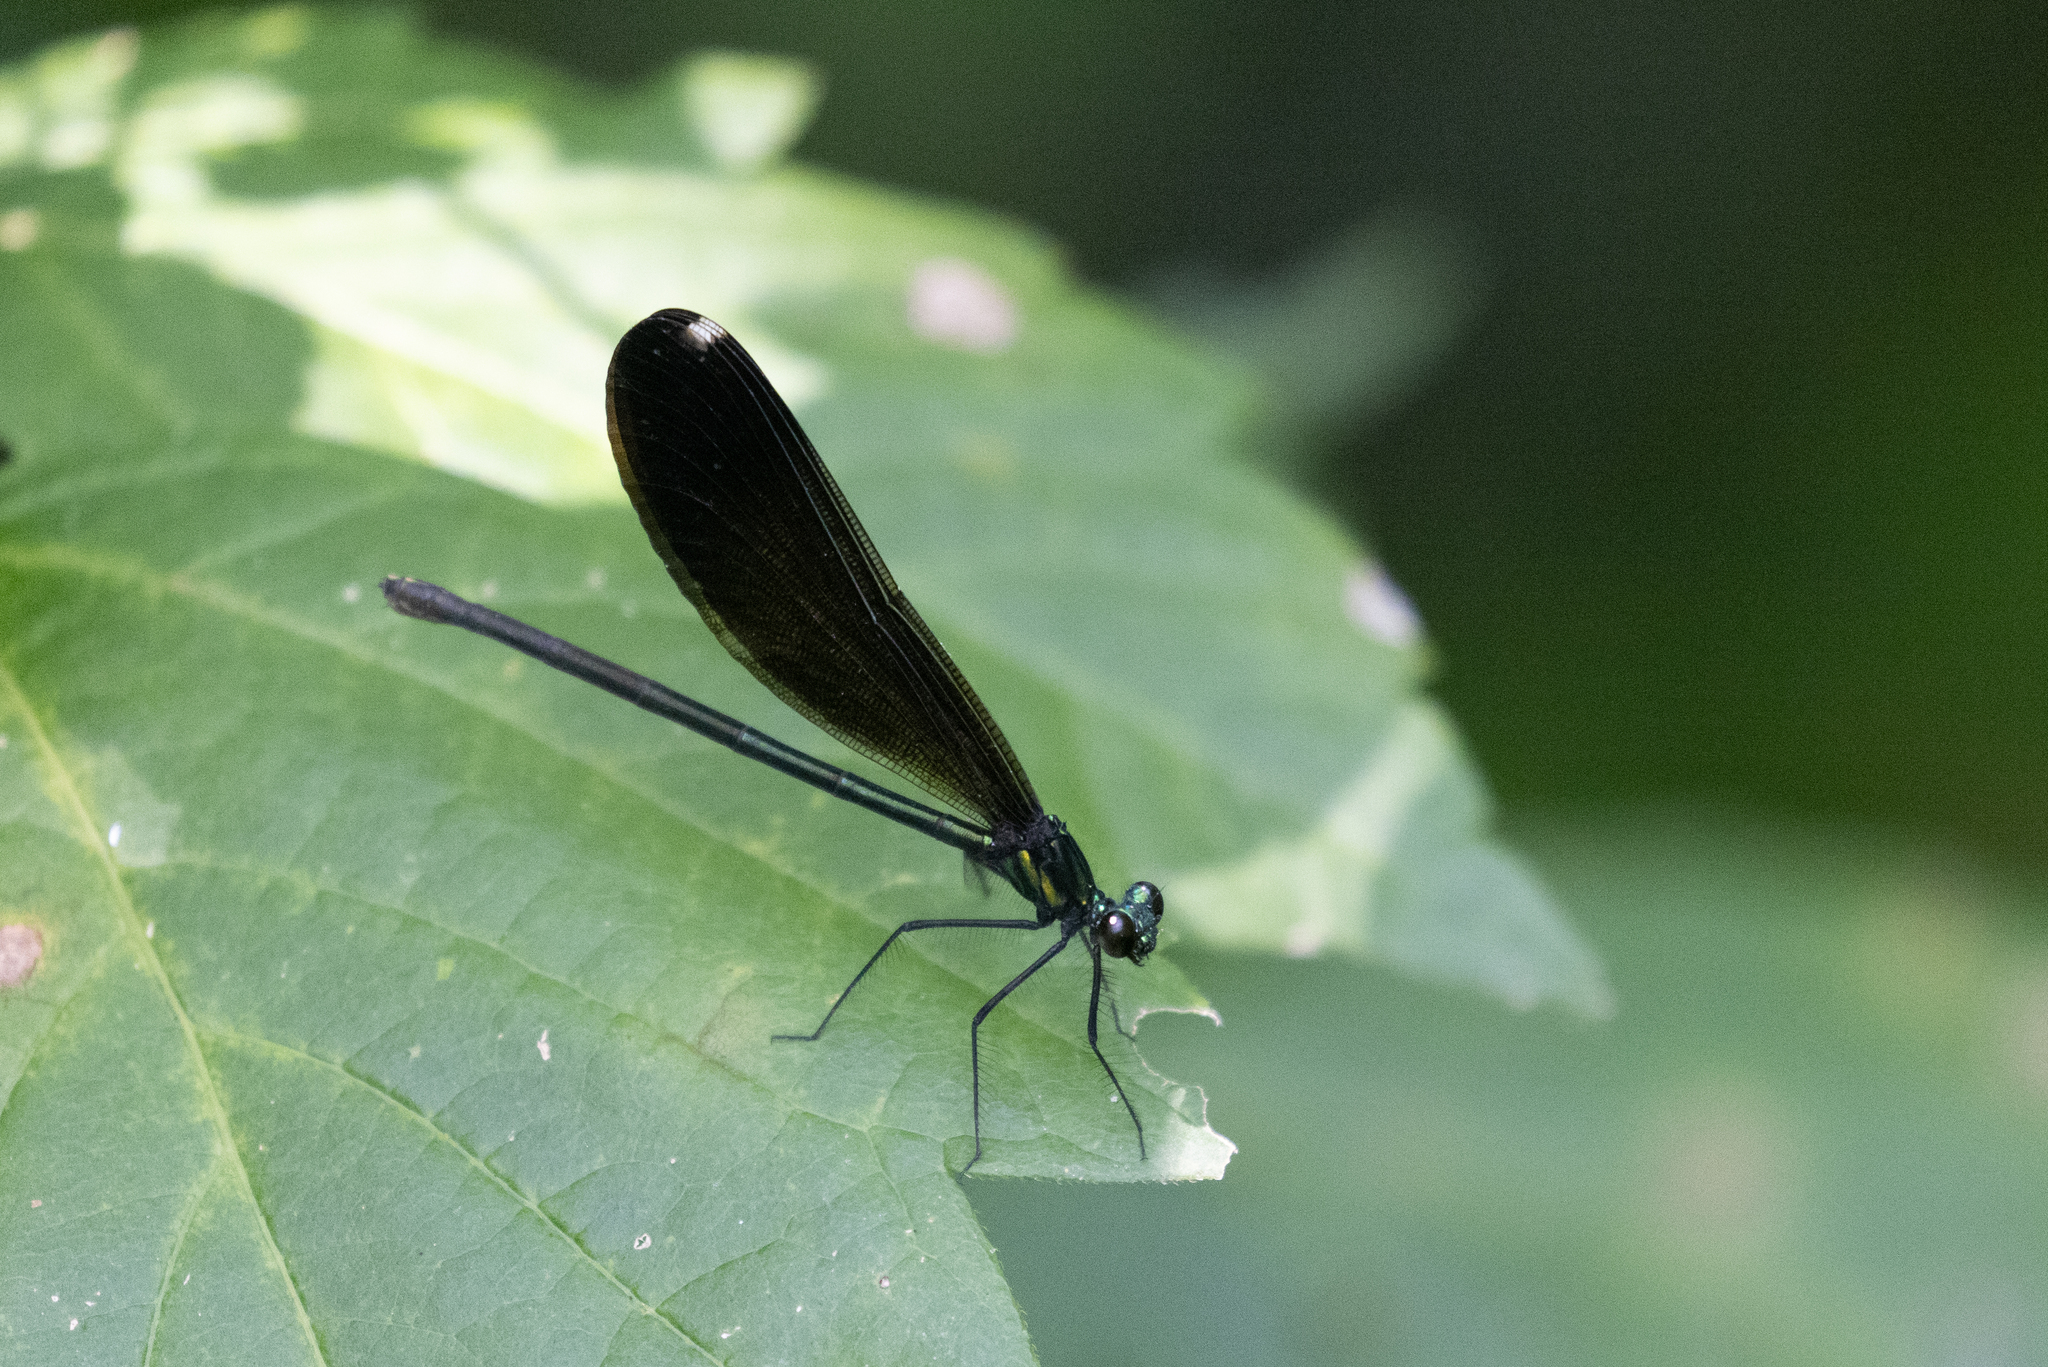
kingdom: Animalia
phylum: Arthropoda
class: Insecta
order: Odonata
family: Calopterygidae
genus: Calopteryx
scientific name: Calopteryx maculata
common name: Ebony jewelwing
